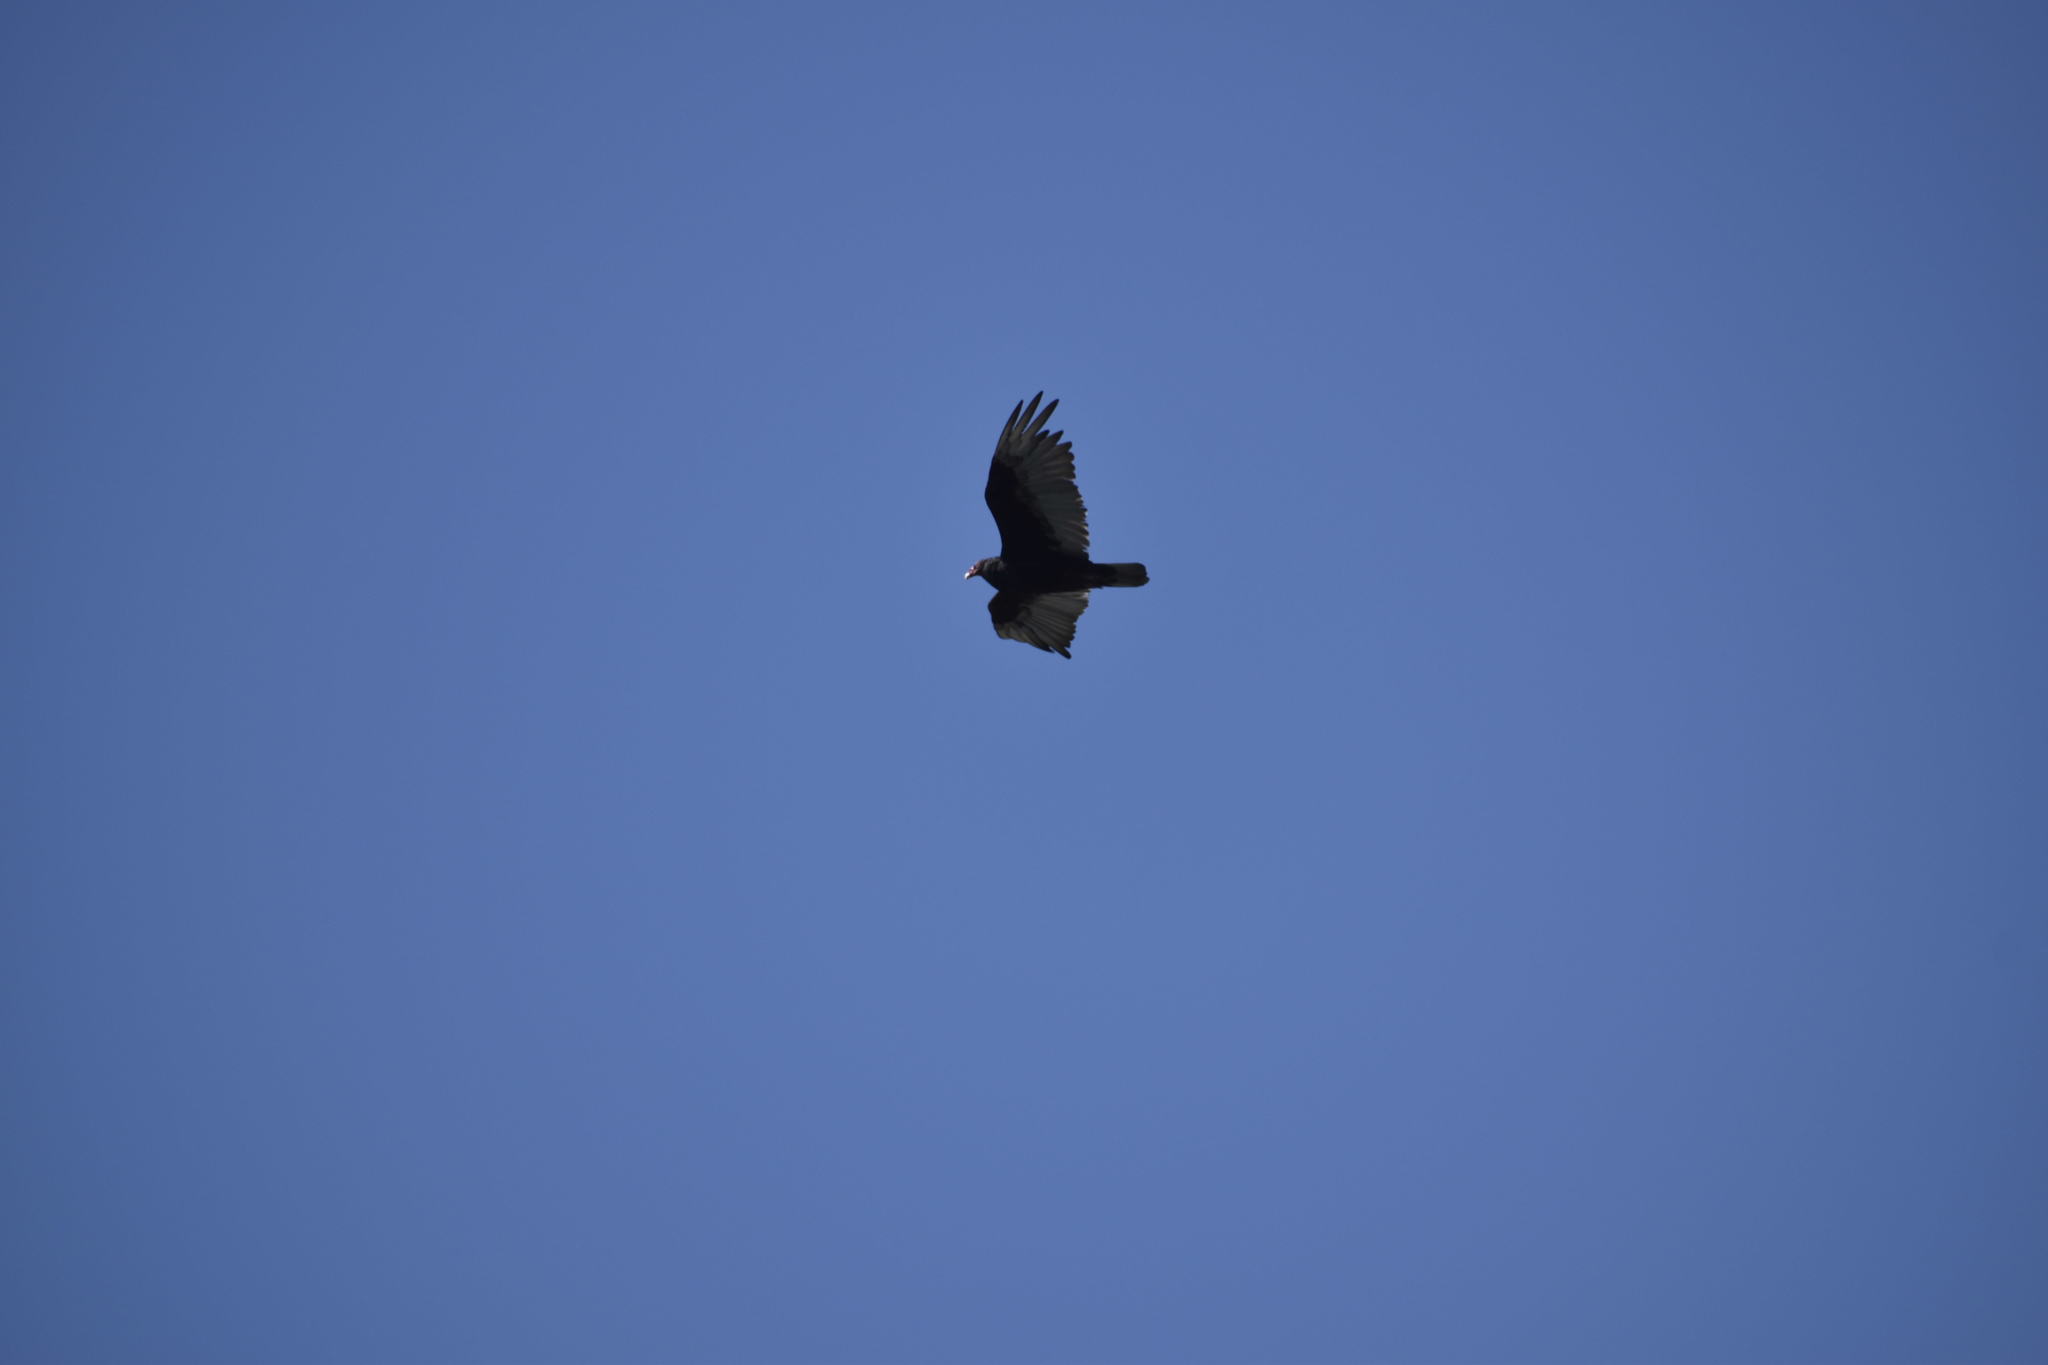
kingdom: Animalia
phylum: Chordata
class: Aves
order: Accipitriformes
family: Cathartidae
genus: Cathartes
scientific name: Cathartes aura
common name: Turkey vulture
